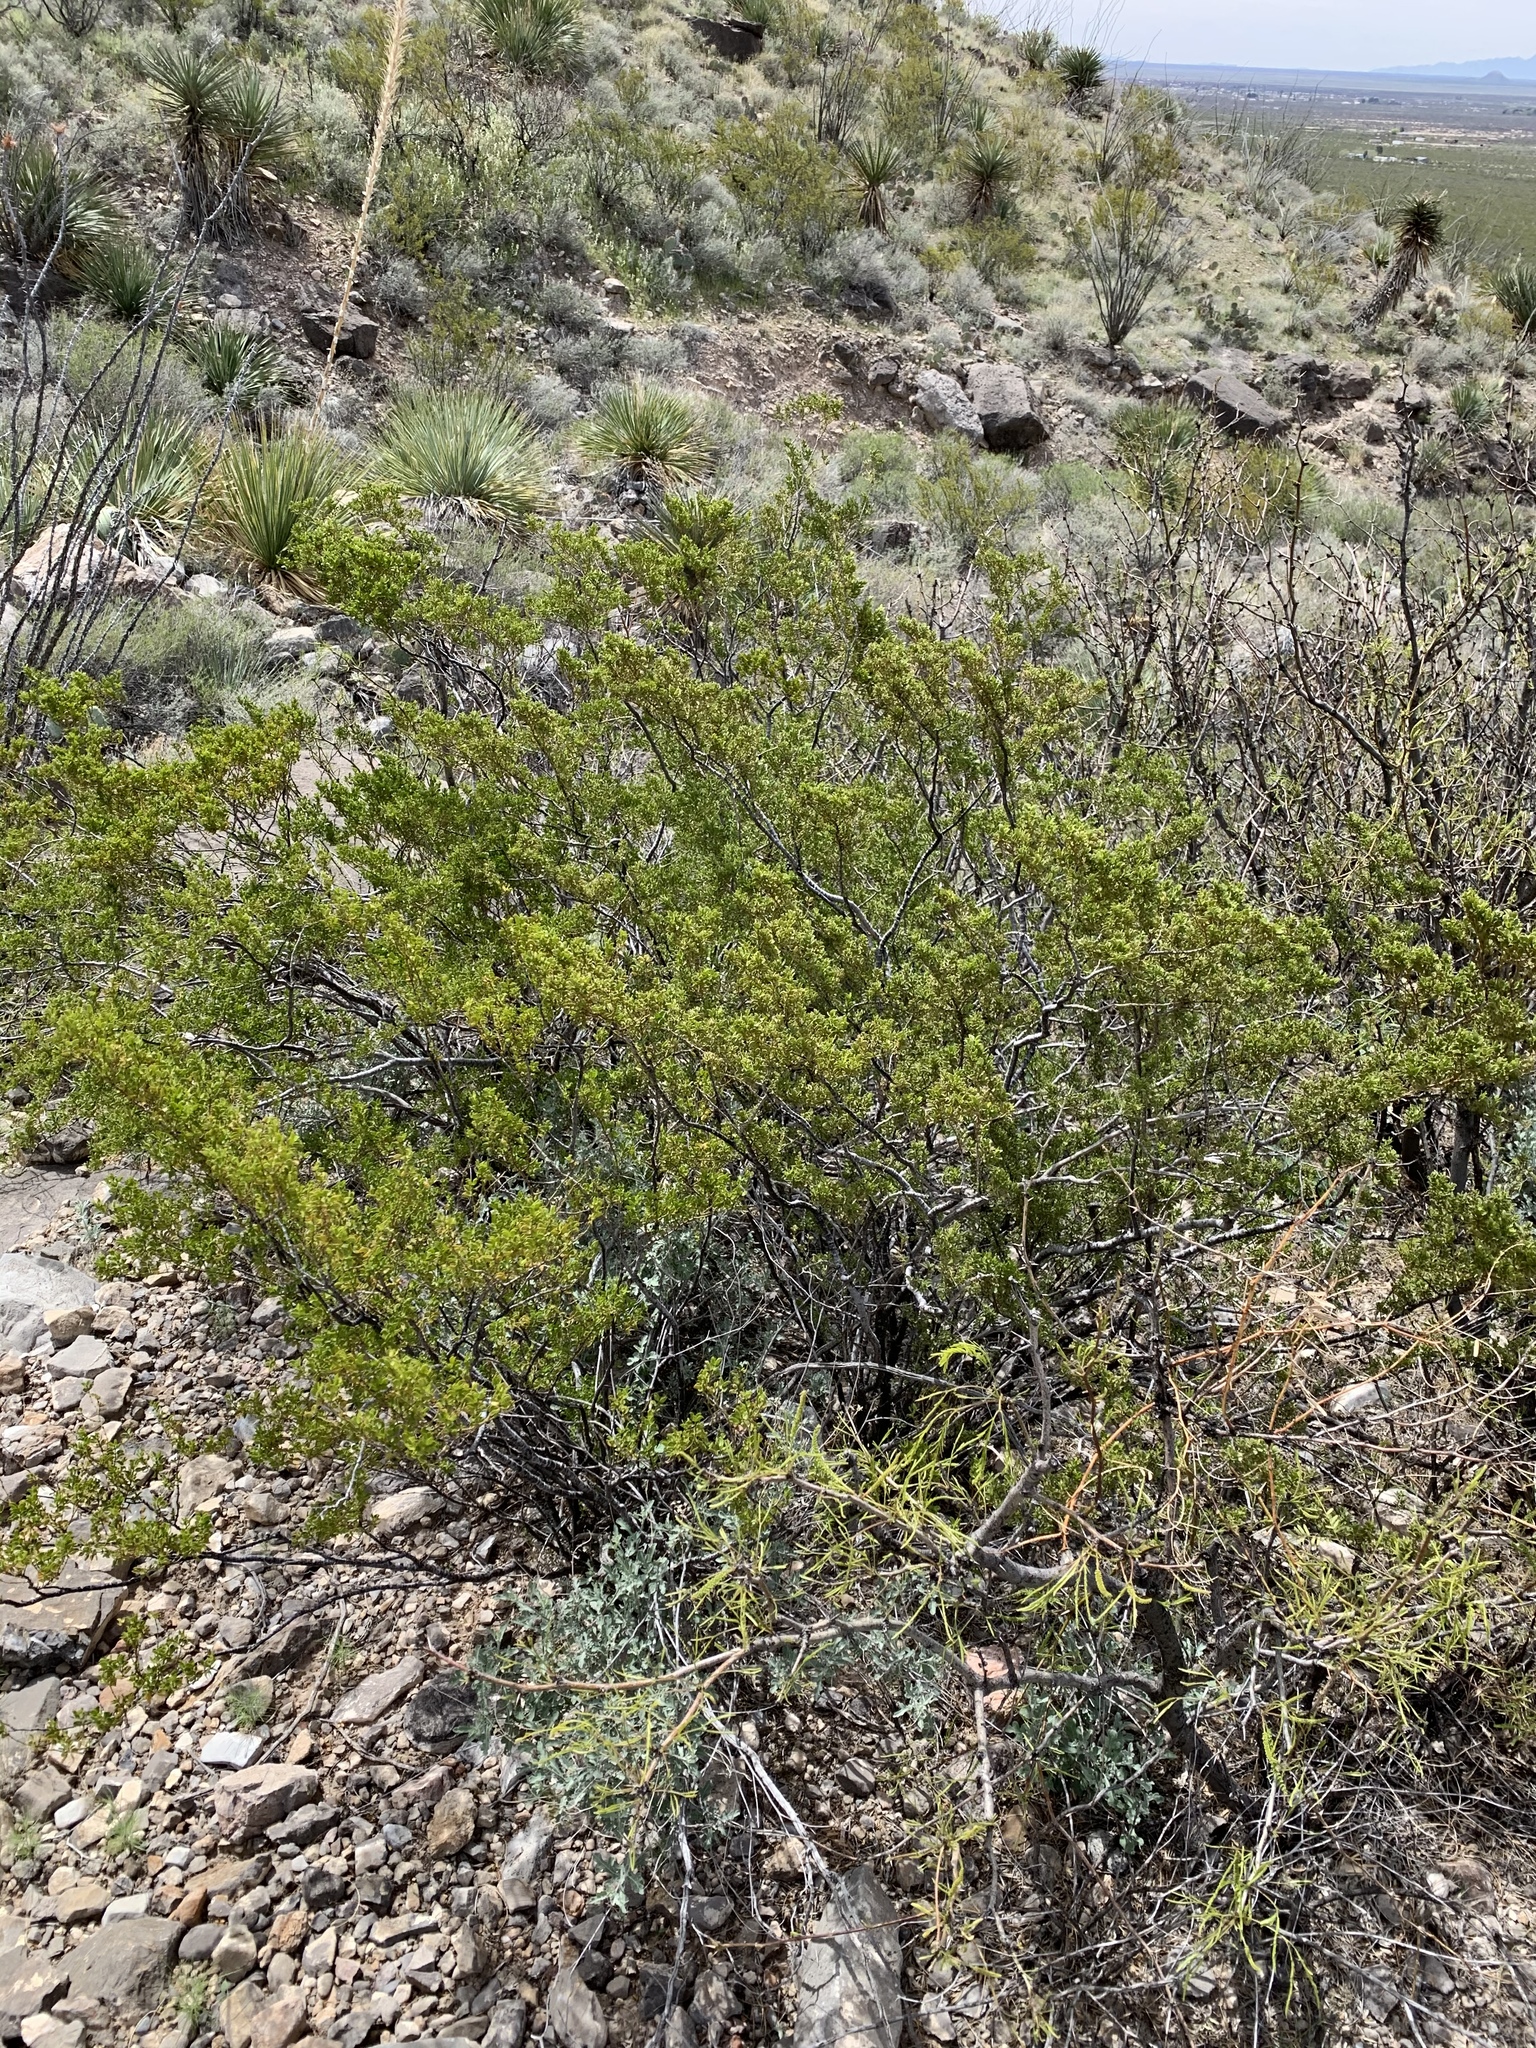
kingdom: Plantae
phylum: Tracheophyta
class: Magnoliopsida
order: Zygophyllales
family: Zygophyllaceae
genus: Larrea
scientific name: Larrea tridentata
